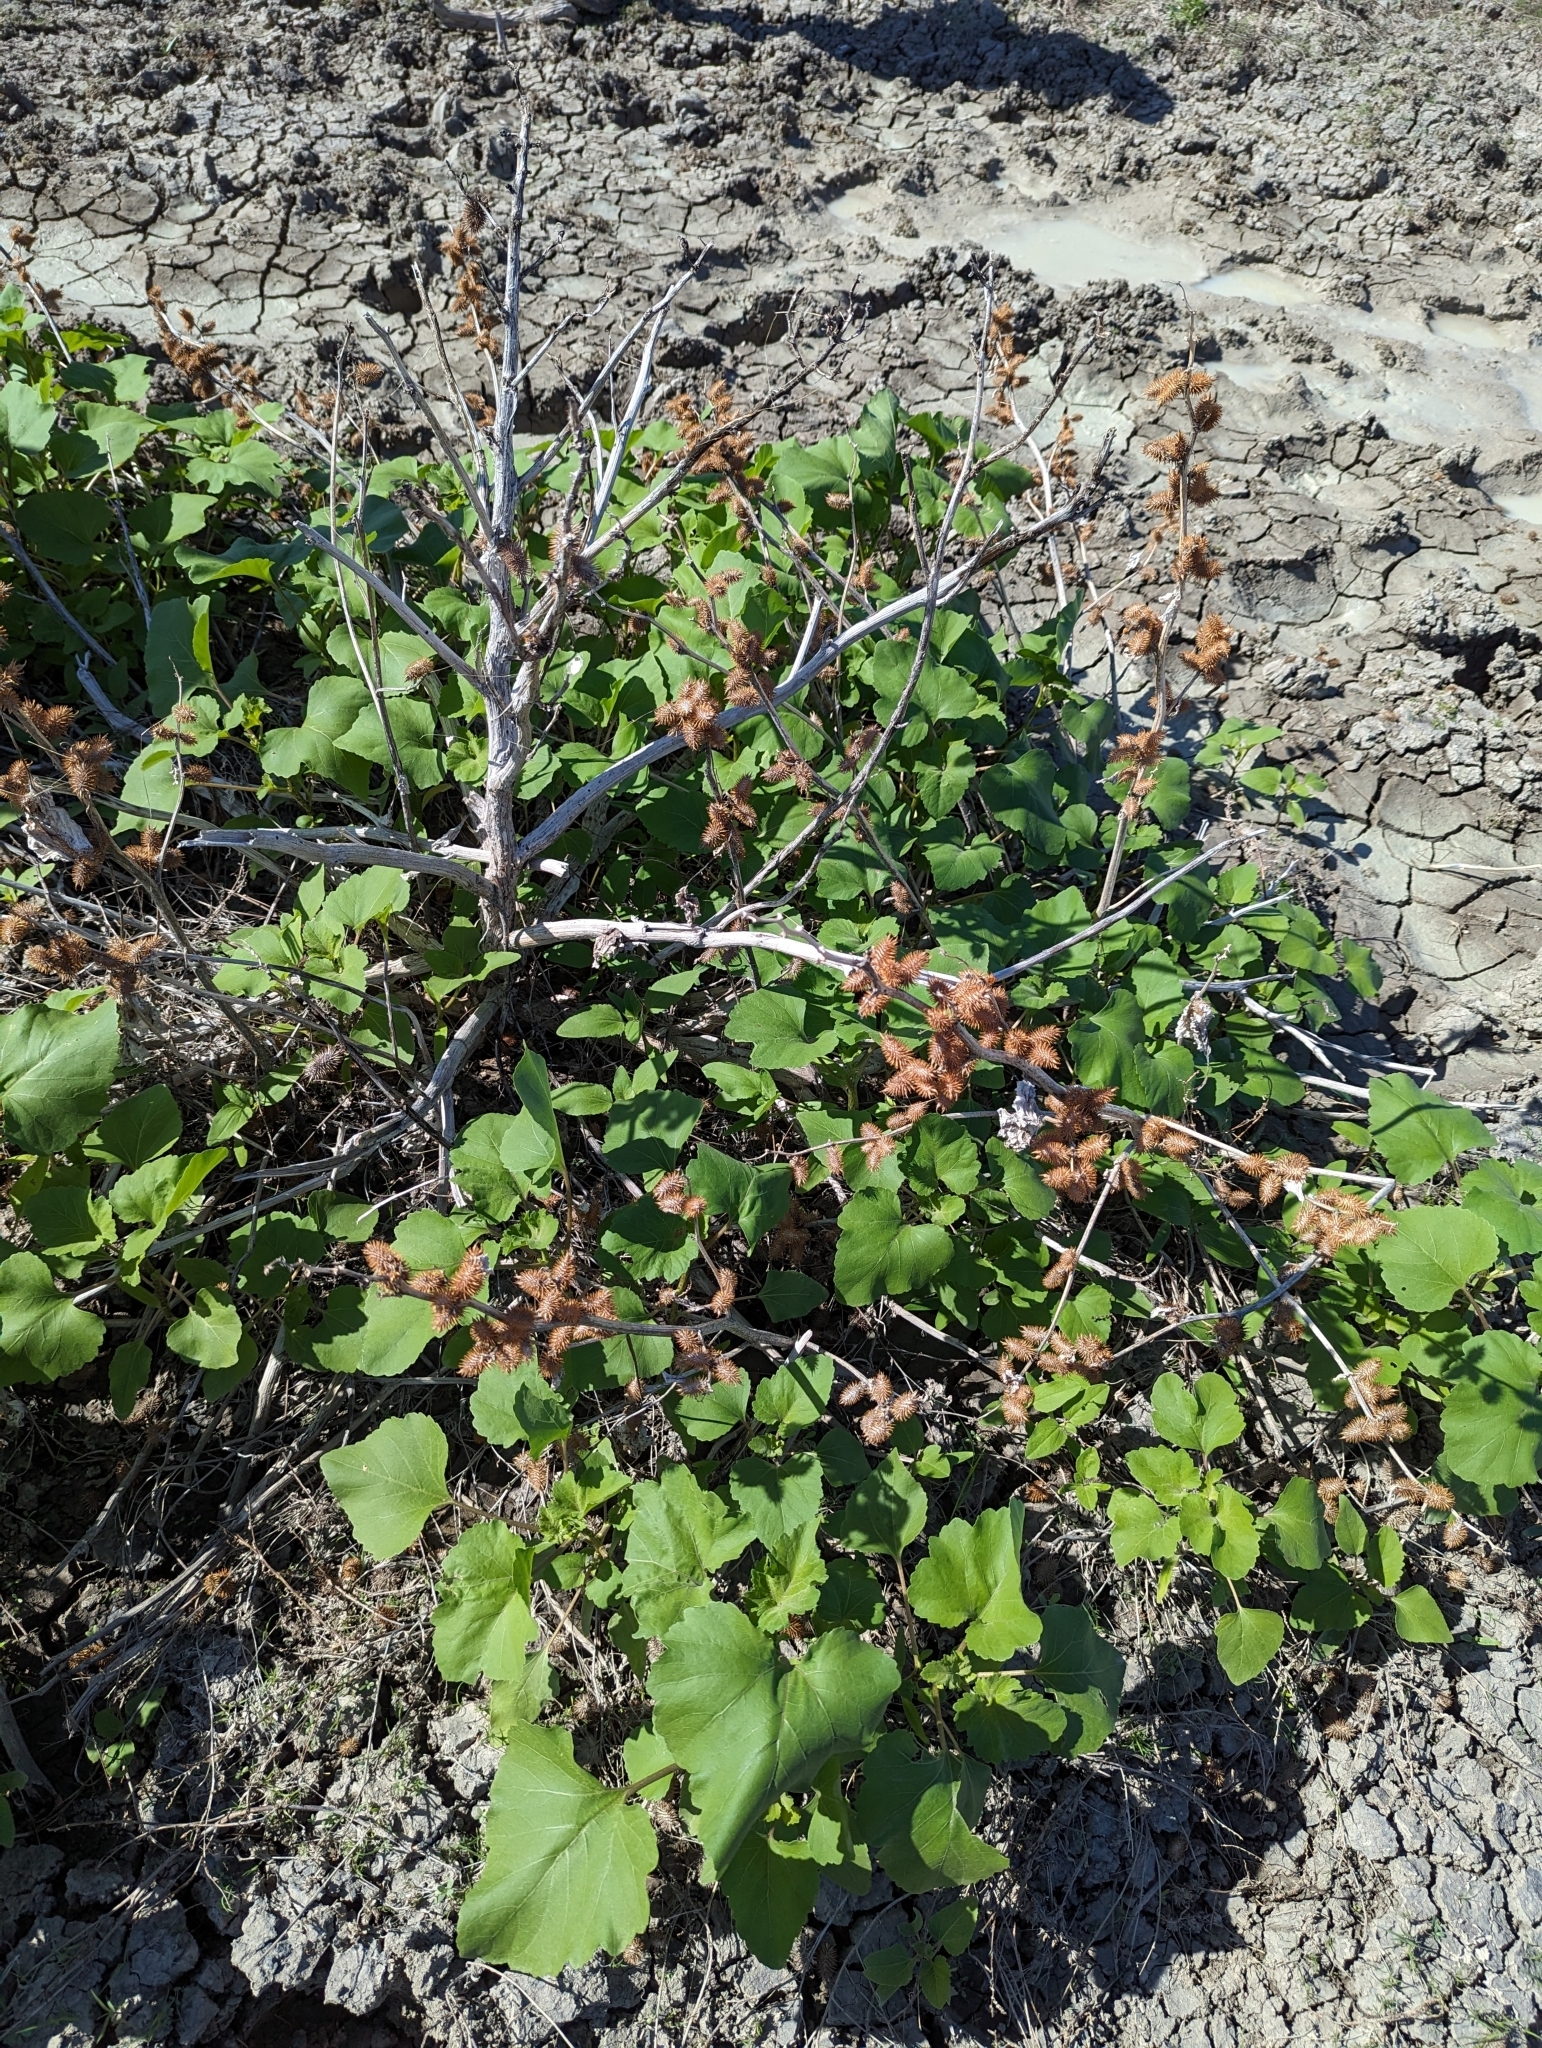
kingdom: Plantae
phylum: Tracheophyta
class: Magnoliopsida
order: Asterales
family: Asteraceae
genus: Xanthium
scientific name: Xanthium strumarium
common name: Rough cocklebur
